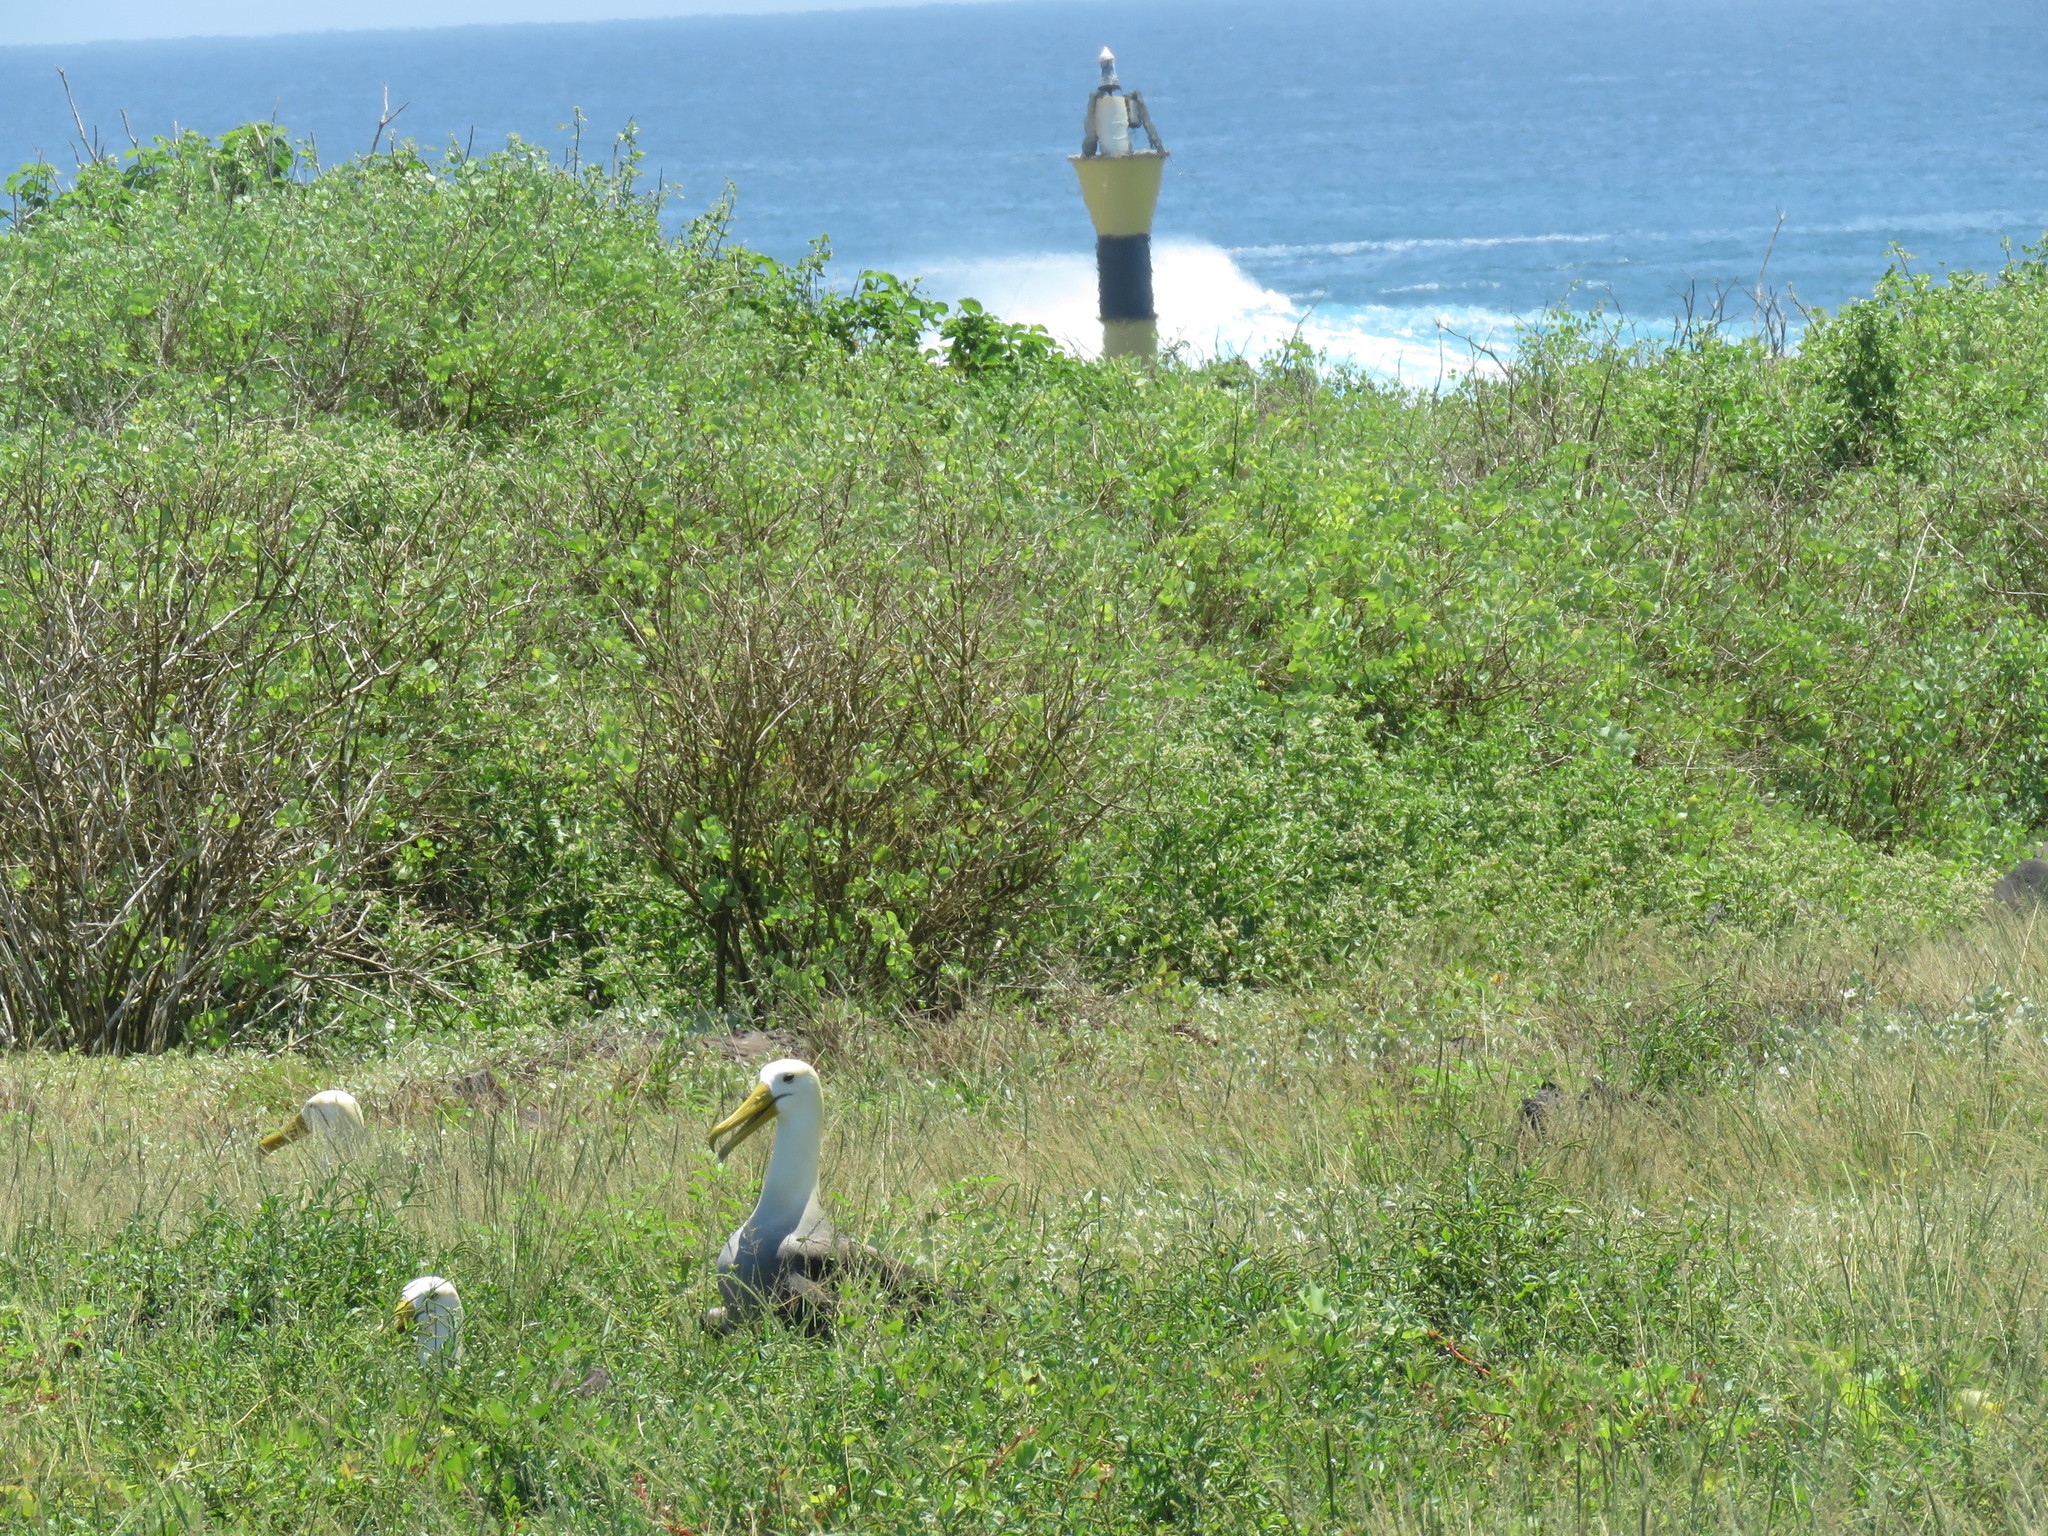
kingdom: Animalia
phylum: Chordata
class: Aves
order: Procellariiformes
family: Diomedeidae
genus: Phoebastria
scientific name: Phoebastria irrorata
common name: Waved albatross
